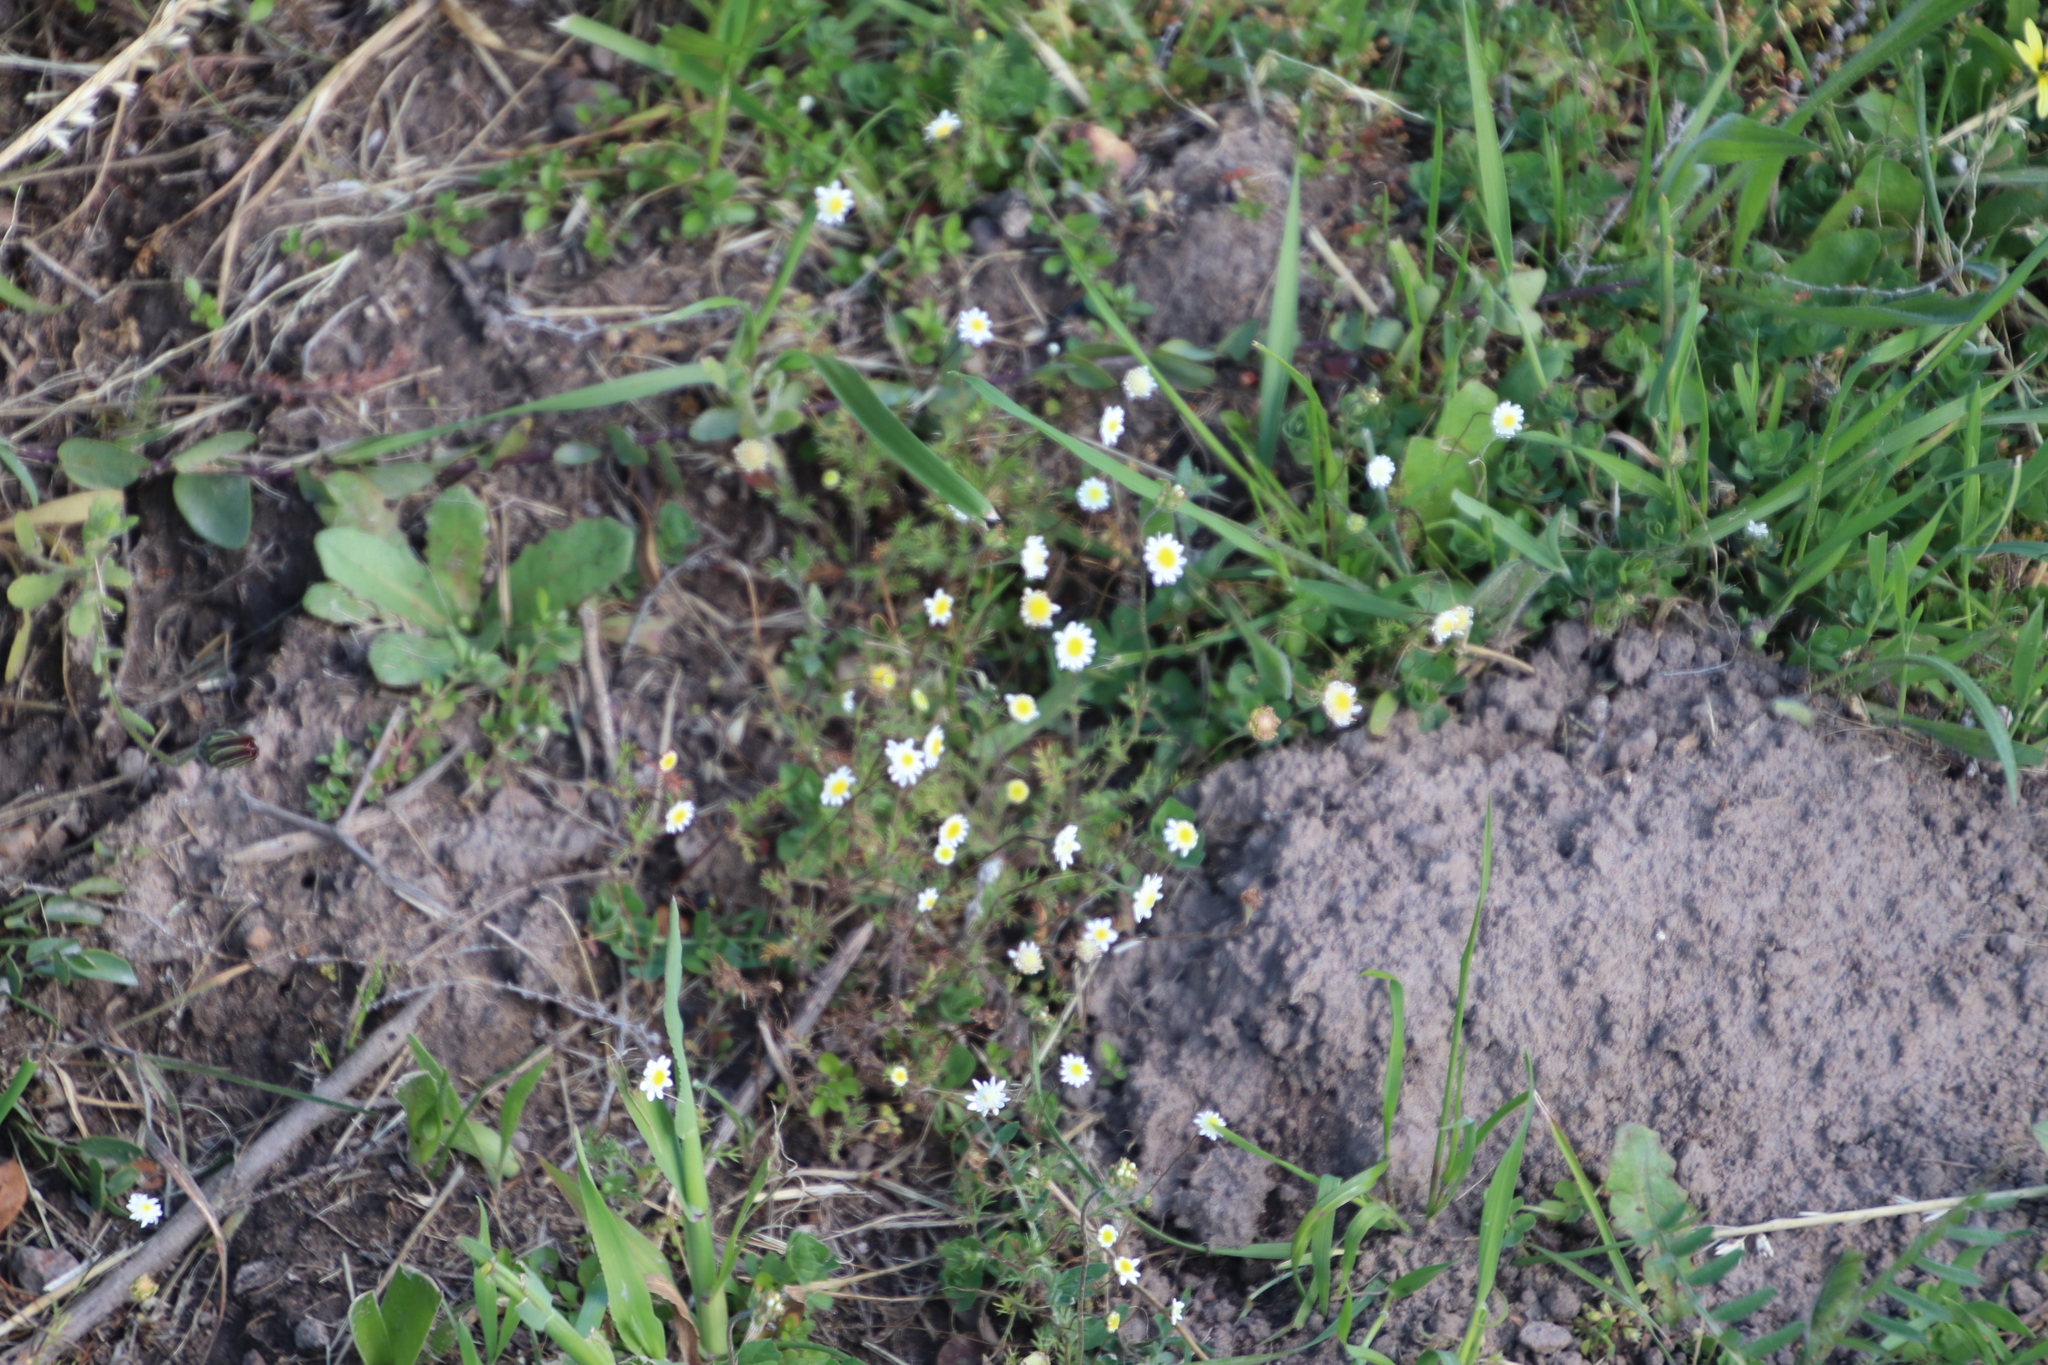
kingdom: Plantae
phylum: Tracheophyta
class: Magnoliopsida
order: Asterales
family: Asteraceae
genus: Cotula
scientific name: Cotula turbinata
